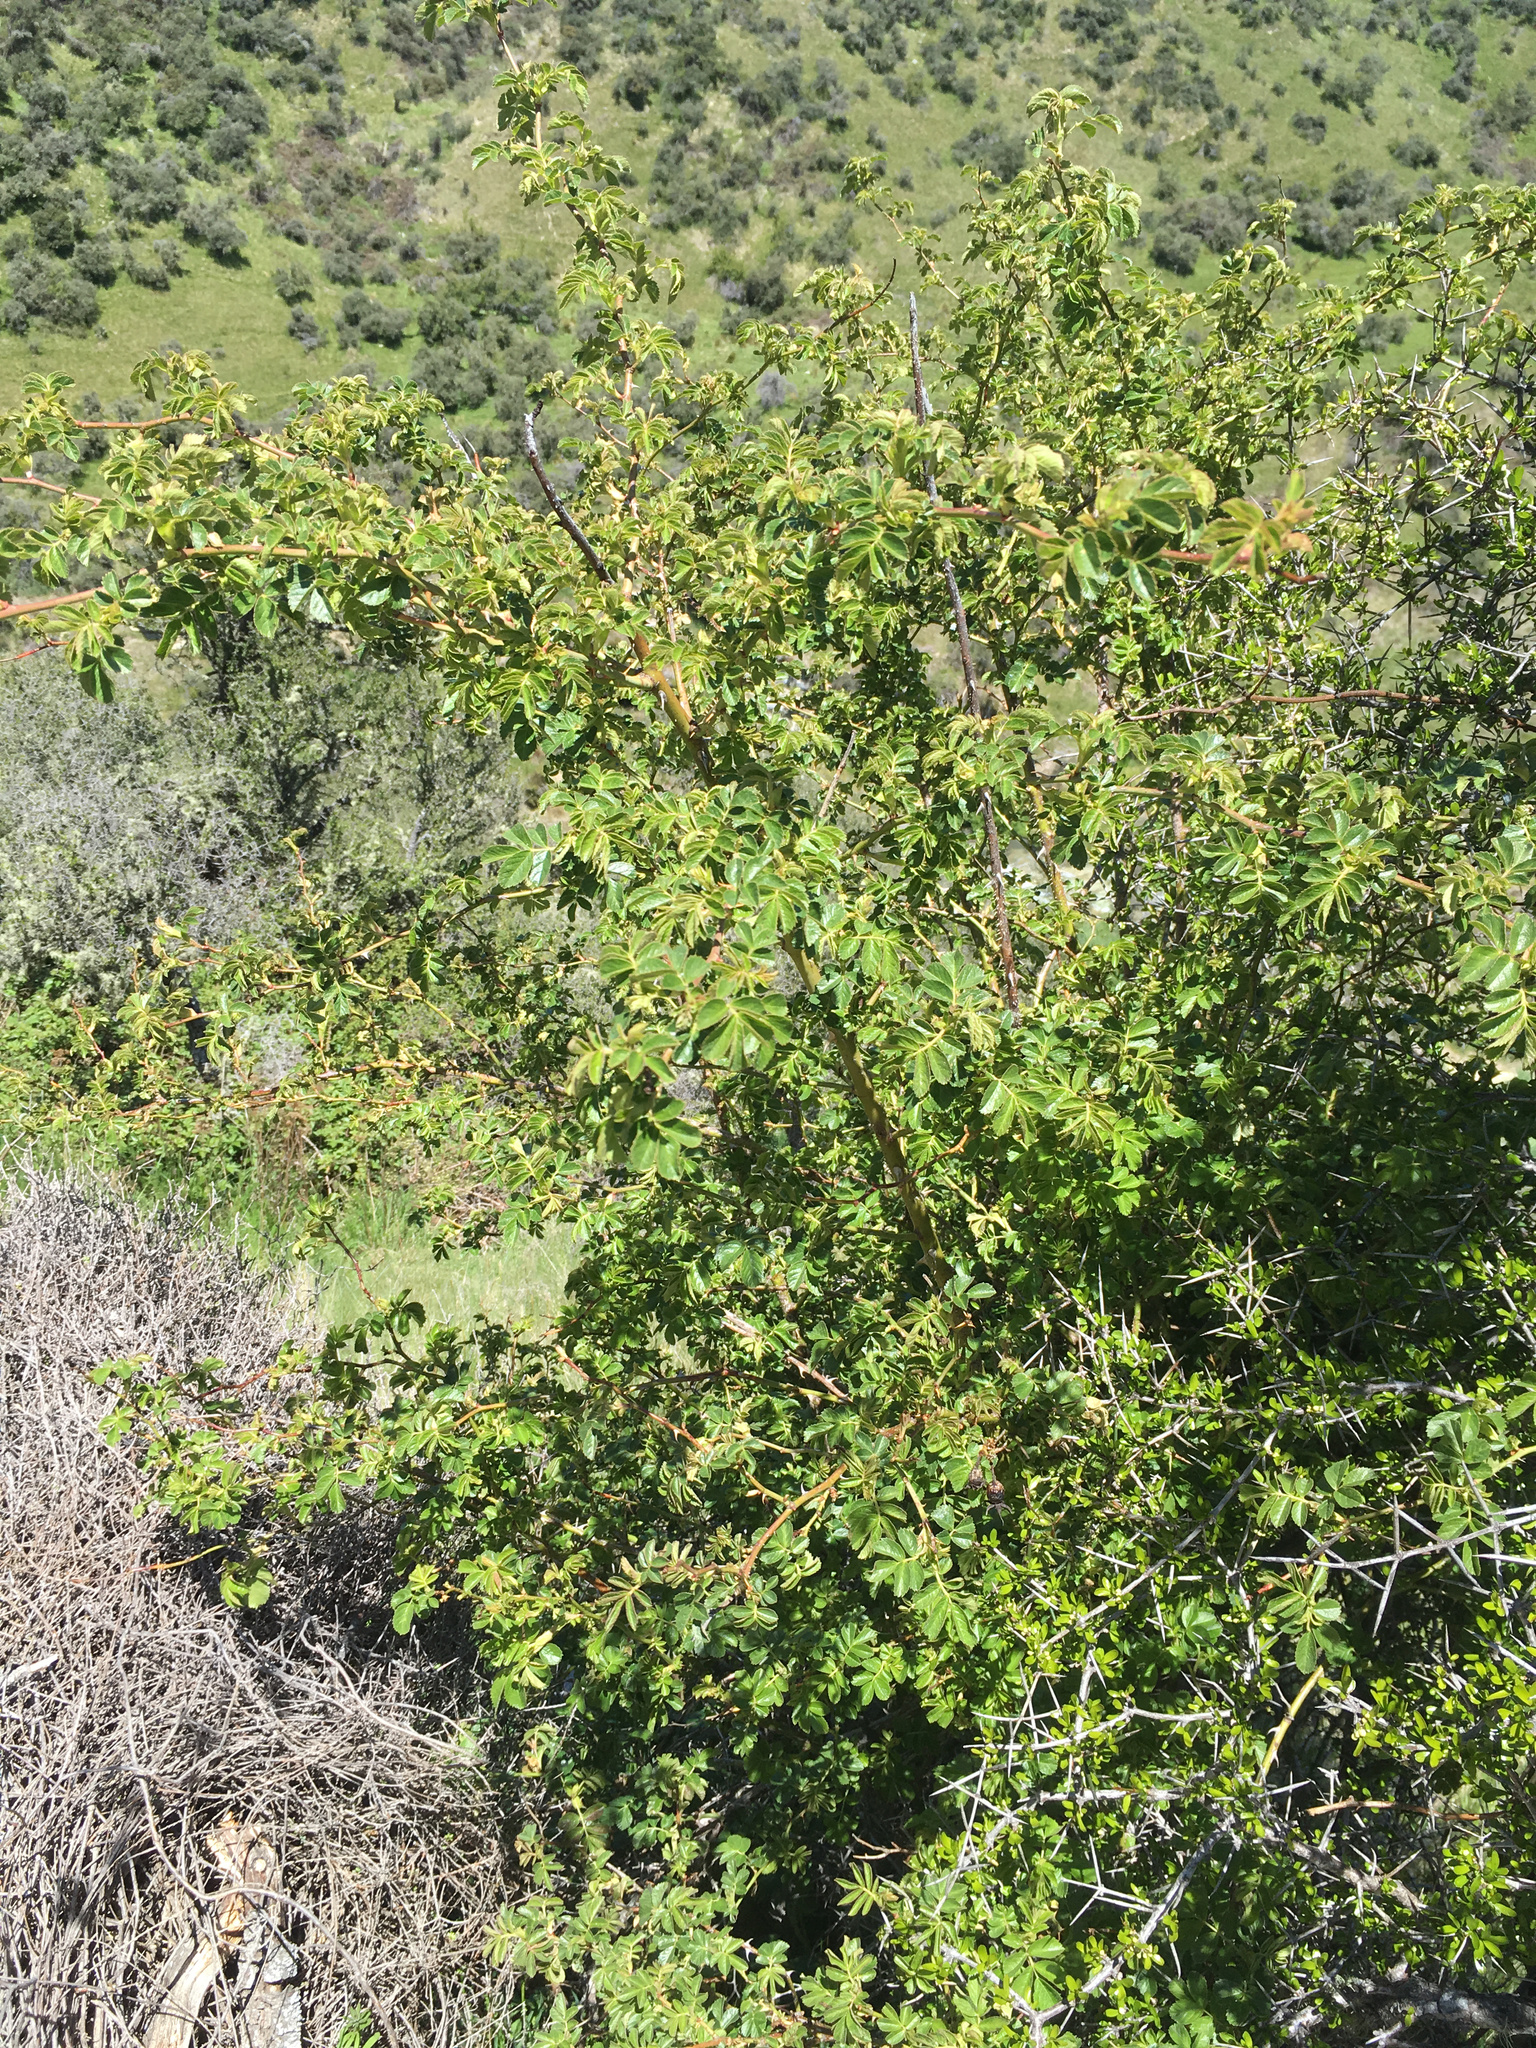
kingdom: Plantae
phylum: Tracheophyta
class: Magnoliopsida
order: Rosales
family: Rosaceae
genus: Rosa
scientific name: Rosa rubiginosa
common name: Sweet-briar
